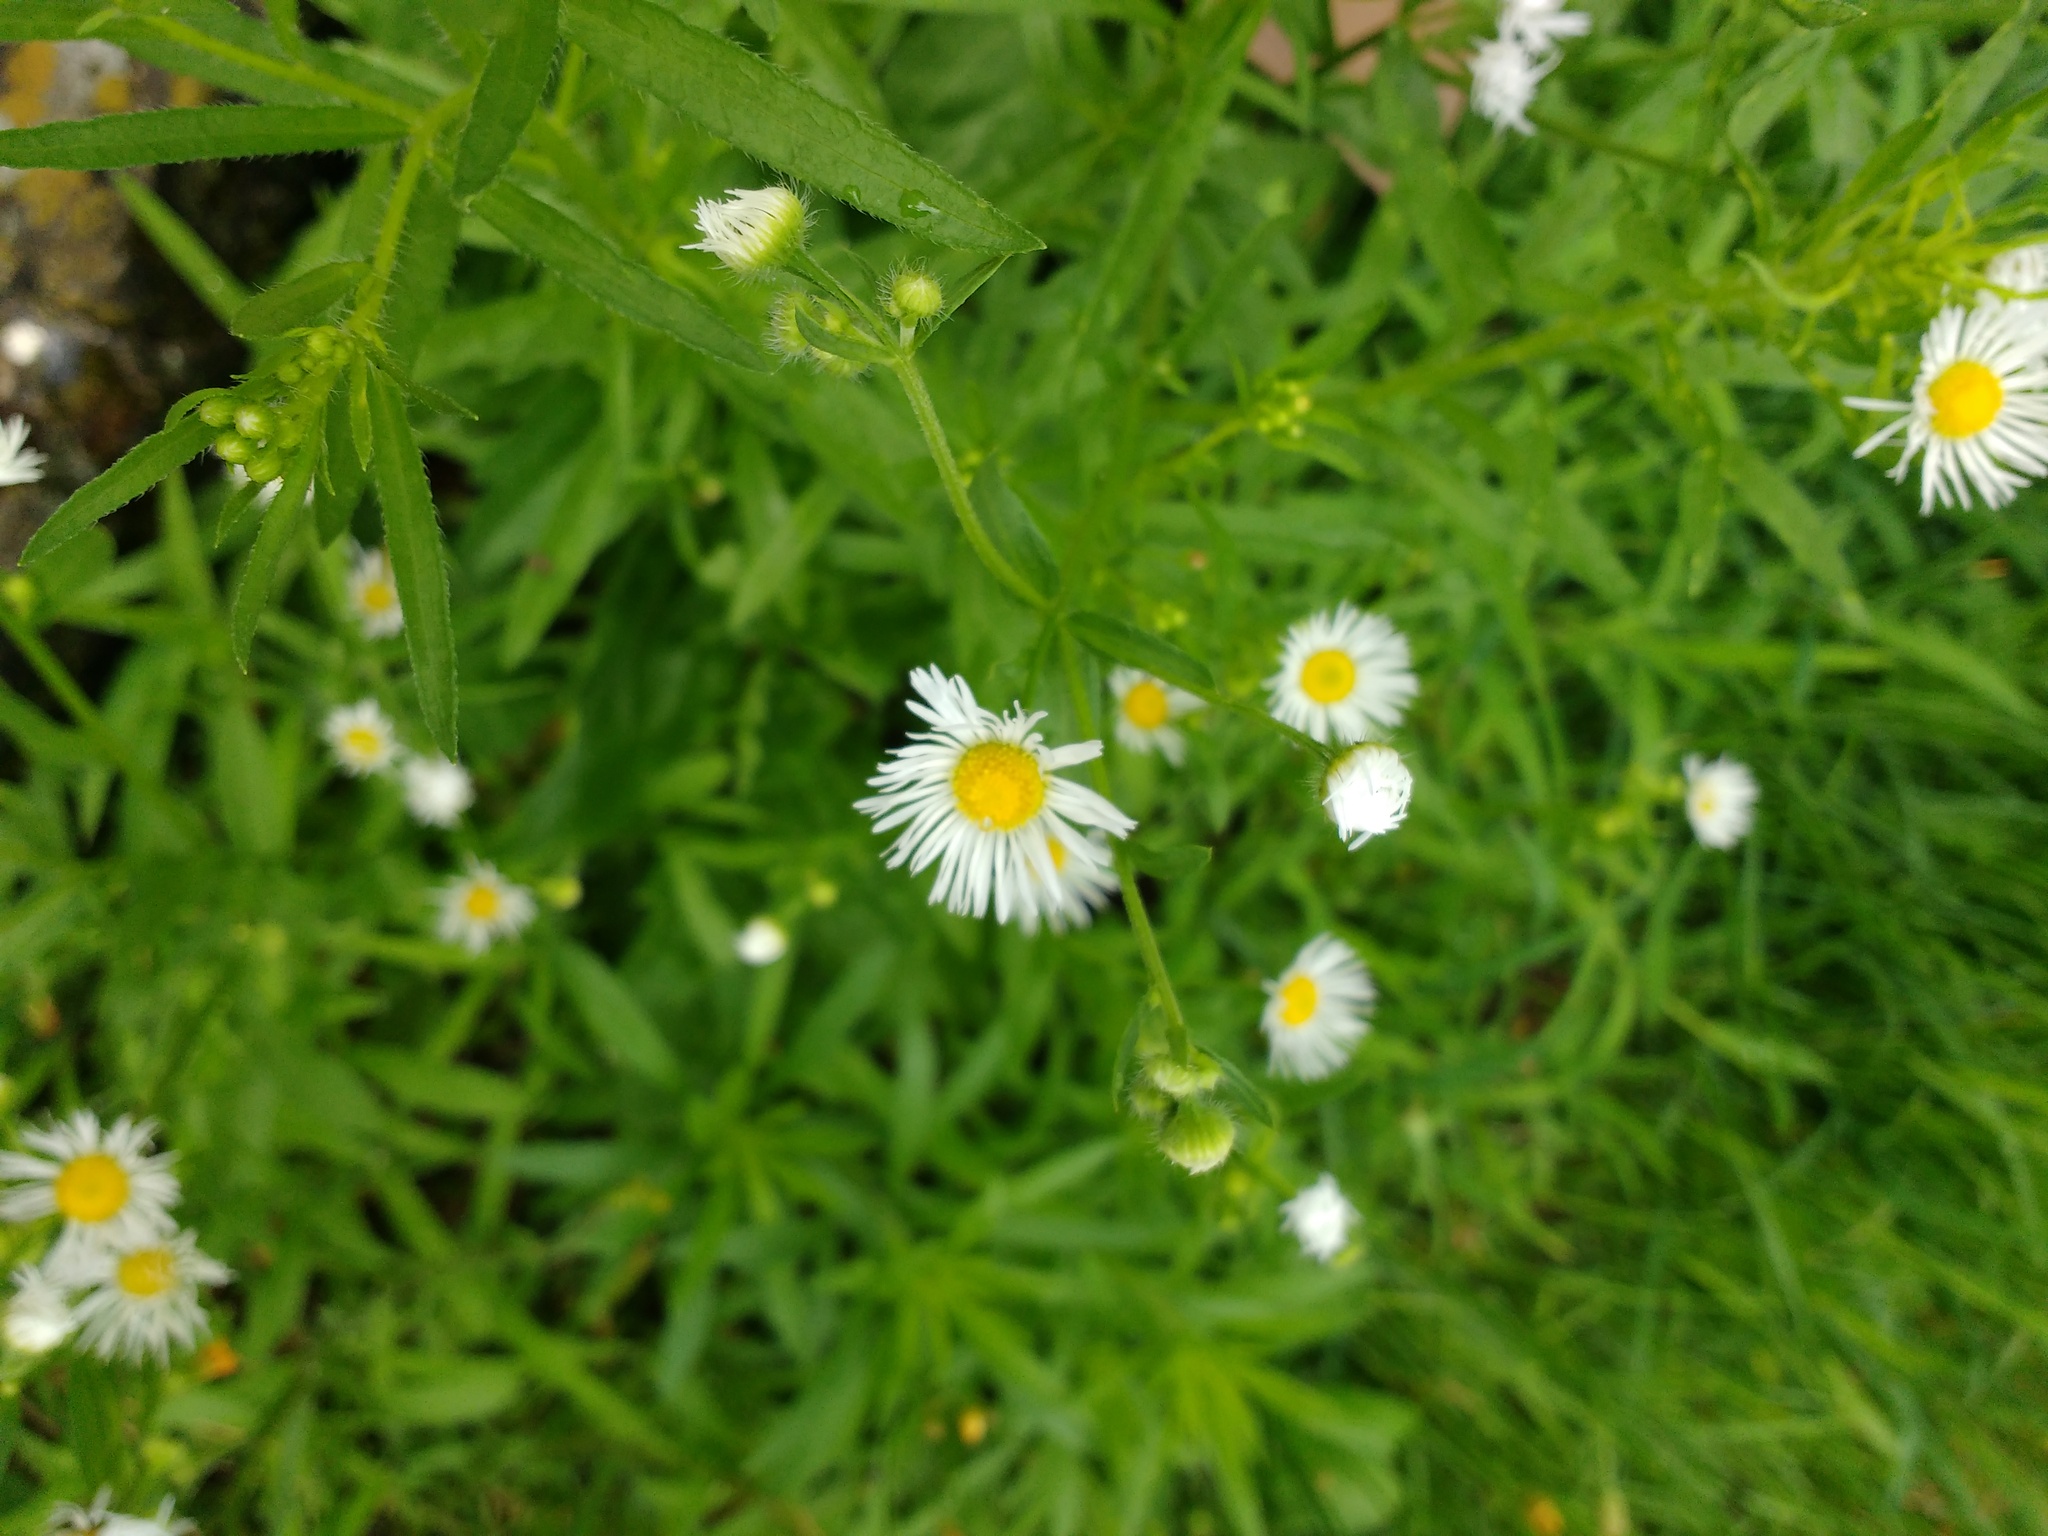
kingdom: Plantae
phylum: Tracheophyta
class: Magnoliopsida
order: Asterales
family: Asteraceae
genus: Erigeron
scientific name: Erigeron annuus
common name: Tall fleabane
